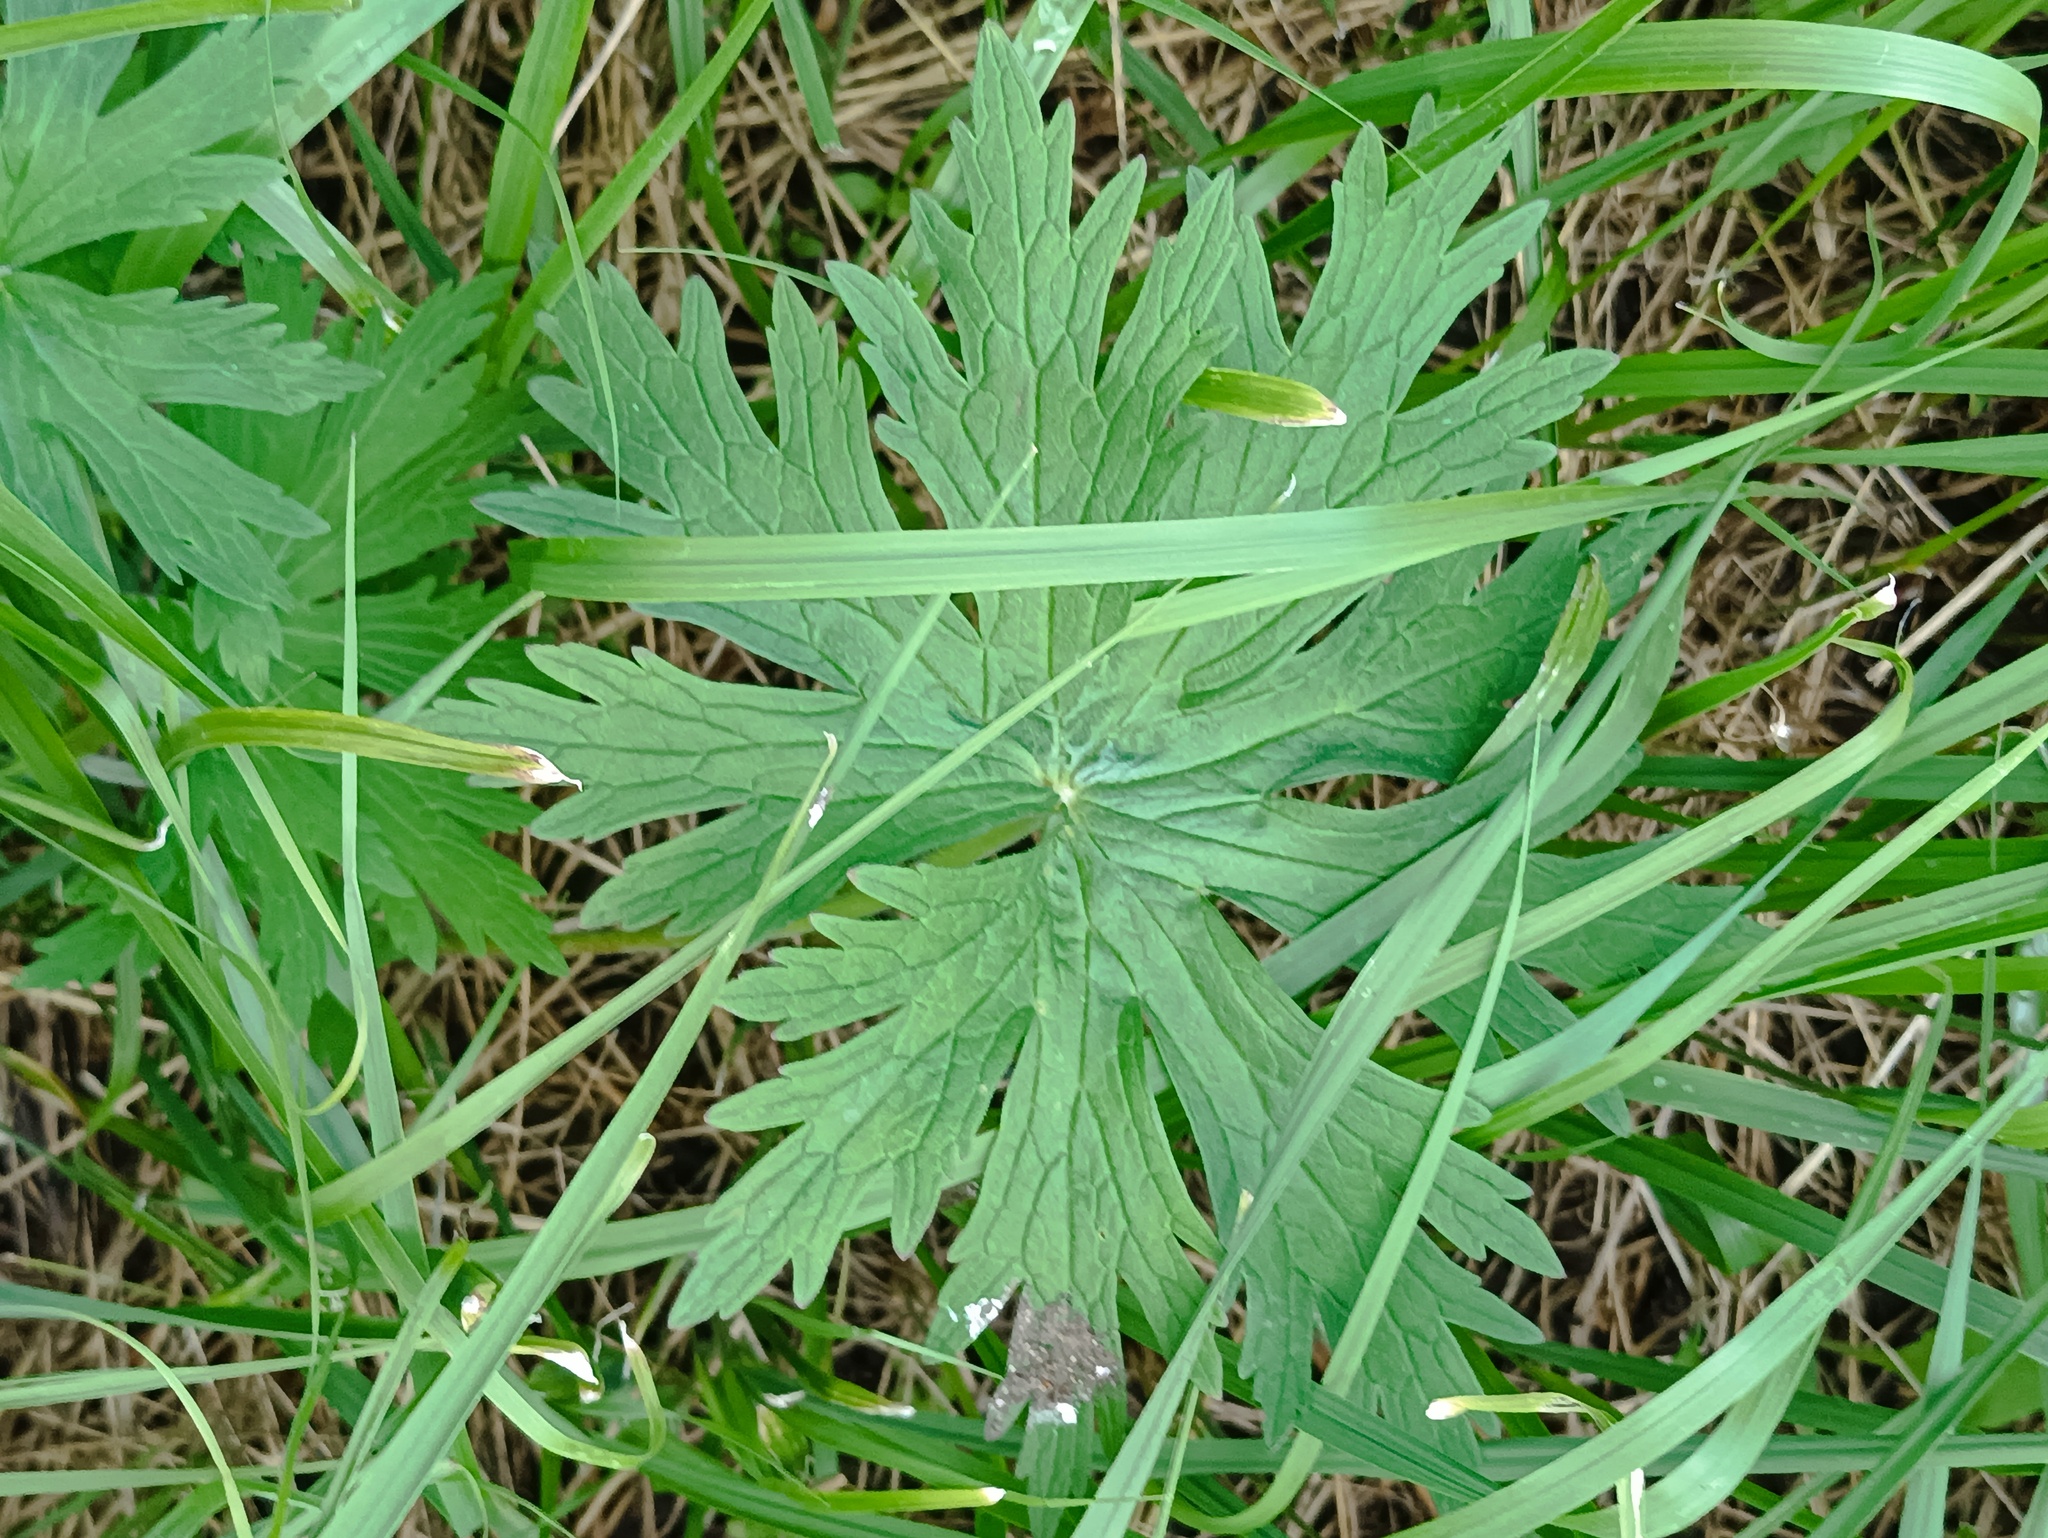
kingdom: Plantae
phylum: Tracheophyta
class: Magnoliopsida
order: Geraniales
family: Geraniaceae
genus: Geranium
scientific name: Geranium pratense
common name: Meadow crane's-bill
